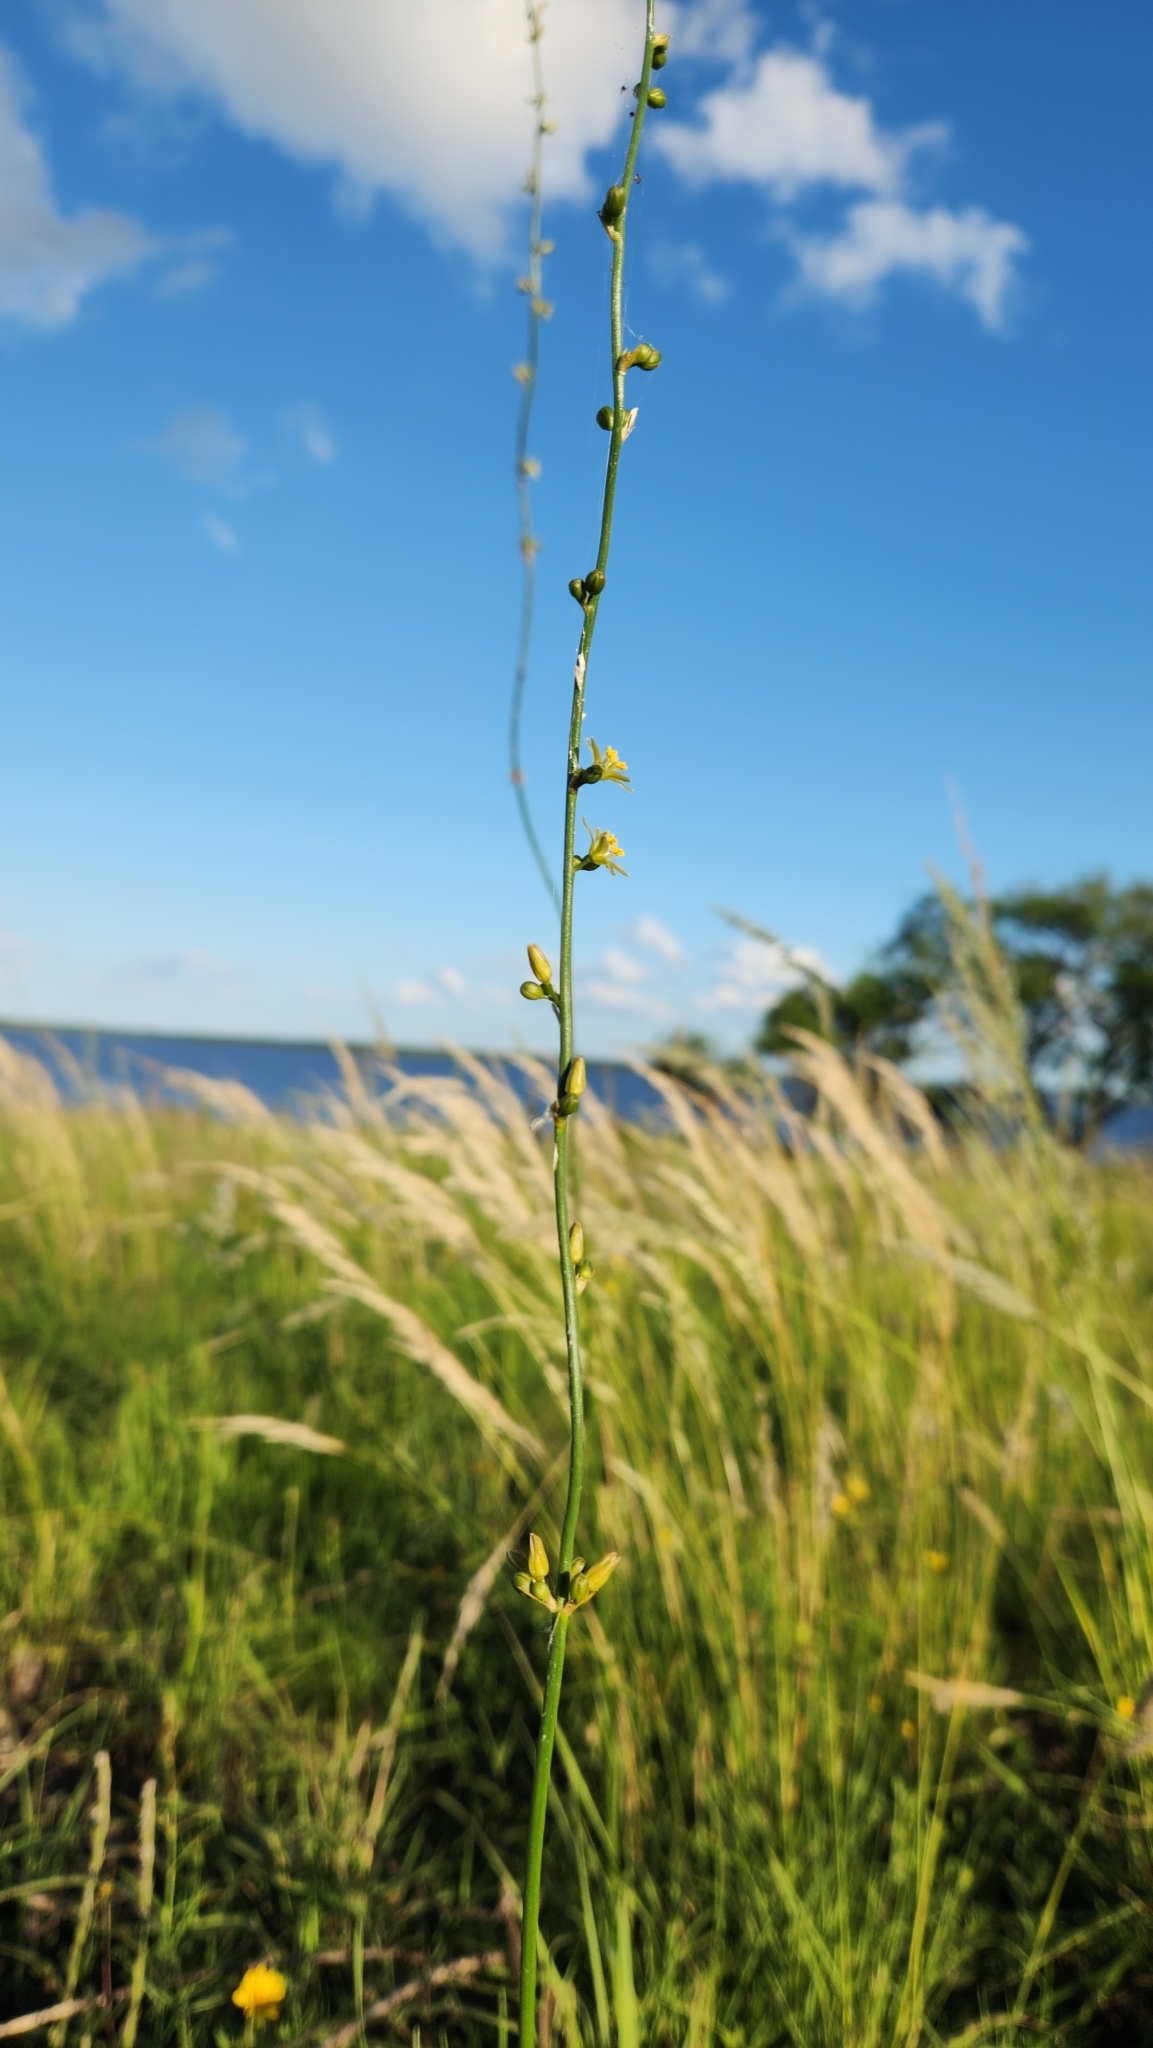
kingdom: Plantae
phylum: Tracheophyta
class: Liliopsida
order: Asparagales
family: Asparagaceae
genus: Clara
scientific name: Clara ophiopogonoides
